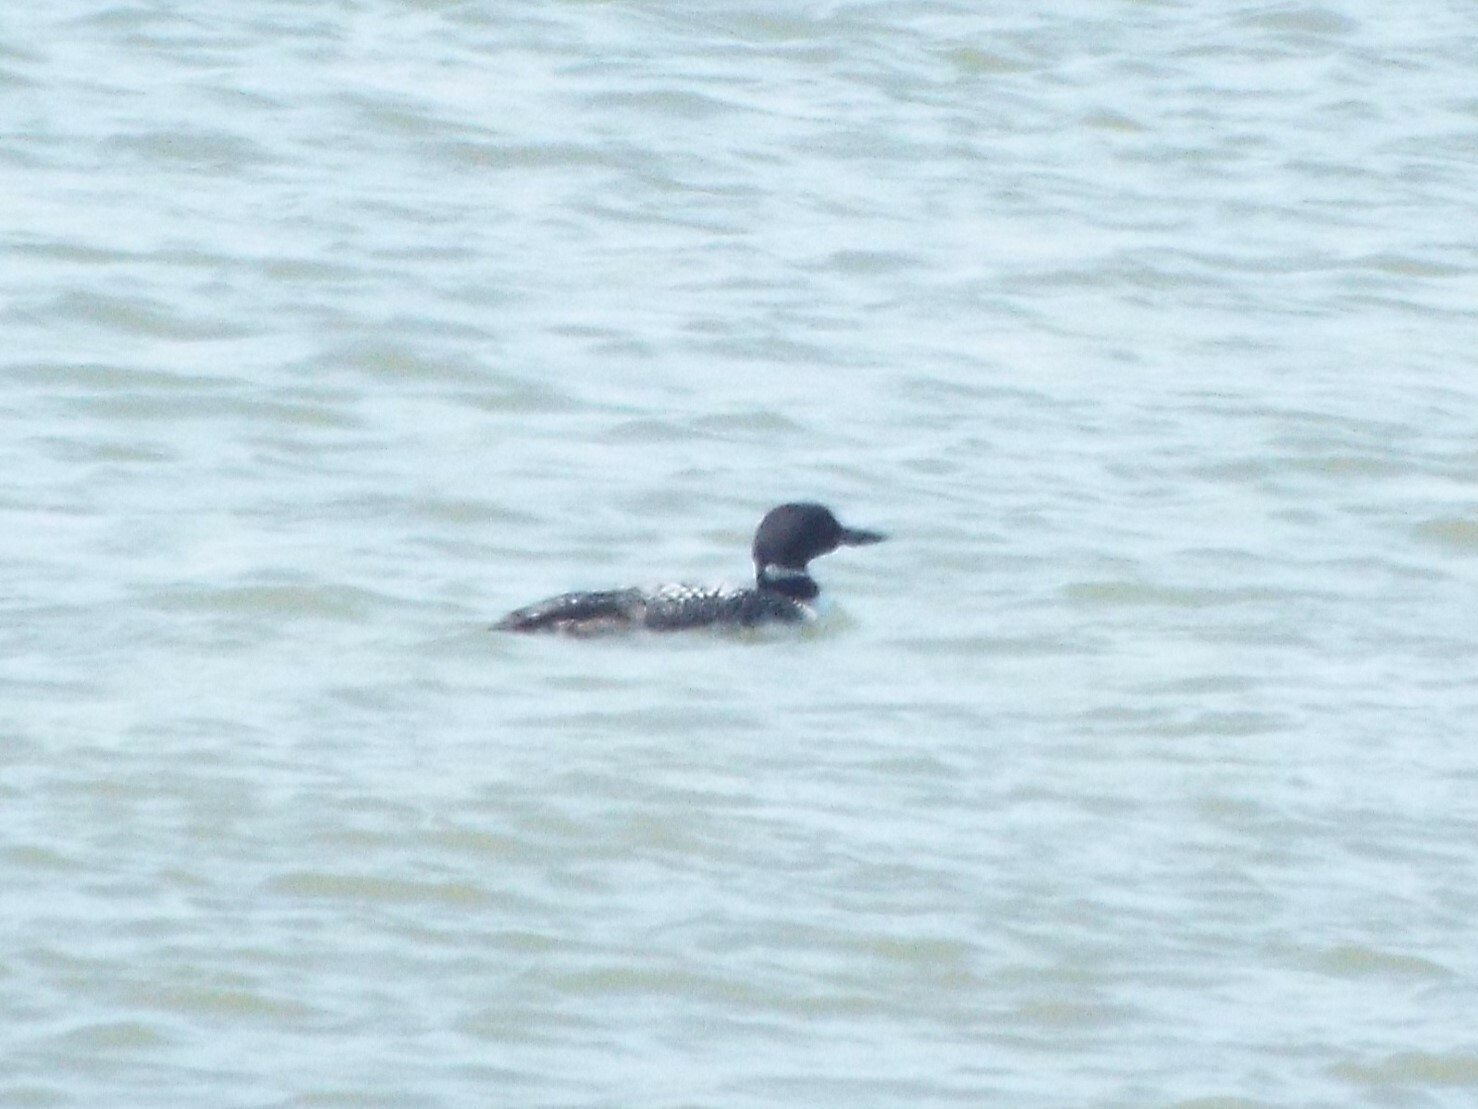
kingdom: Animalia
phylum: Chordata
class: Aves
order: Gaviiformes
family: Gaviidae
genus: Gavia
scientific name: Gavia immer
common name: Common loon
